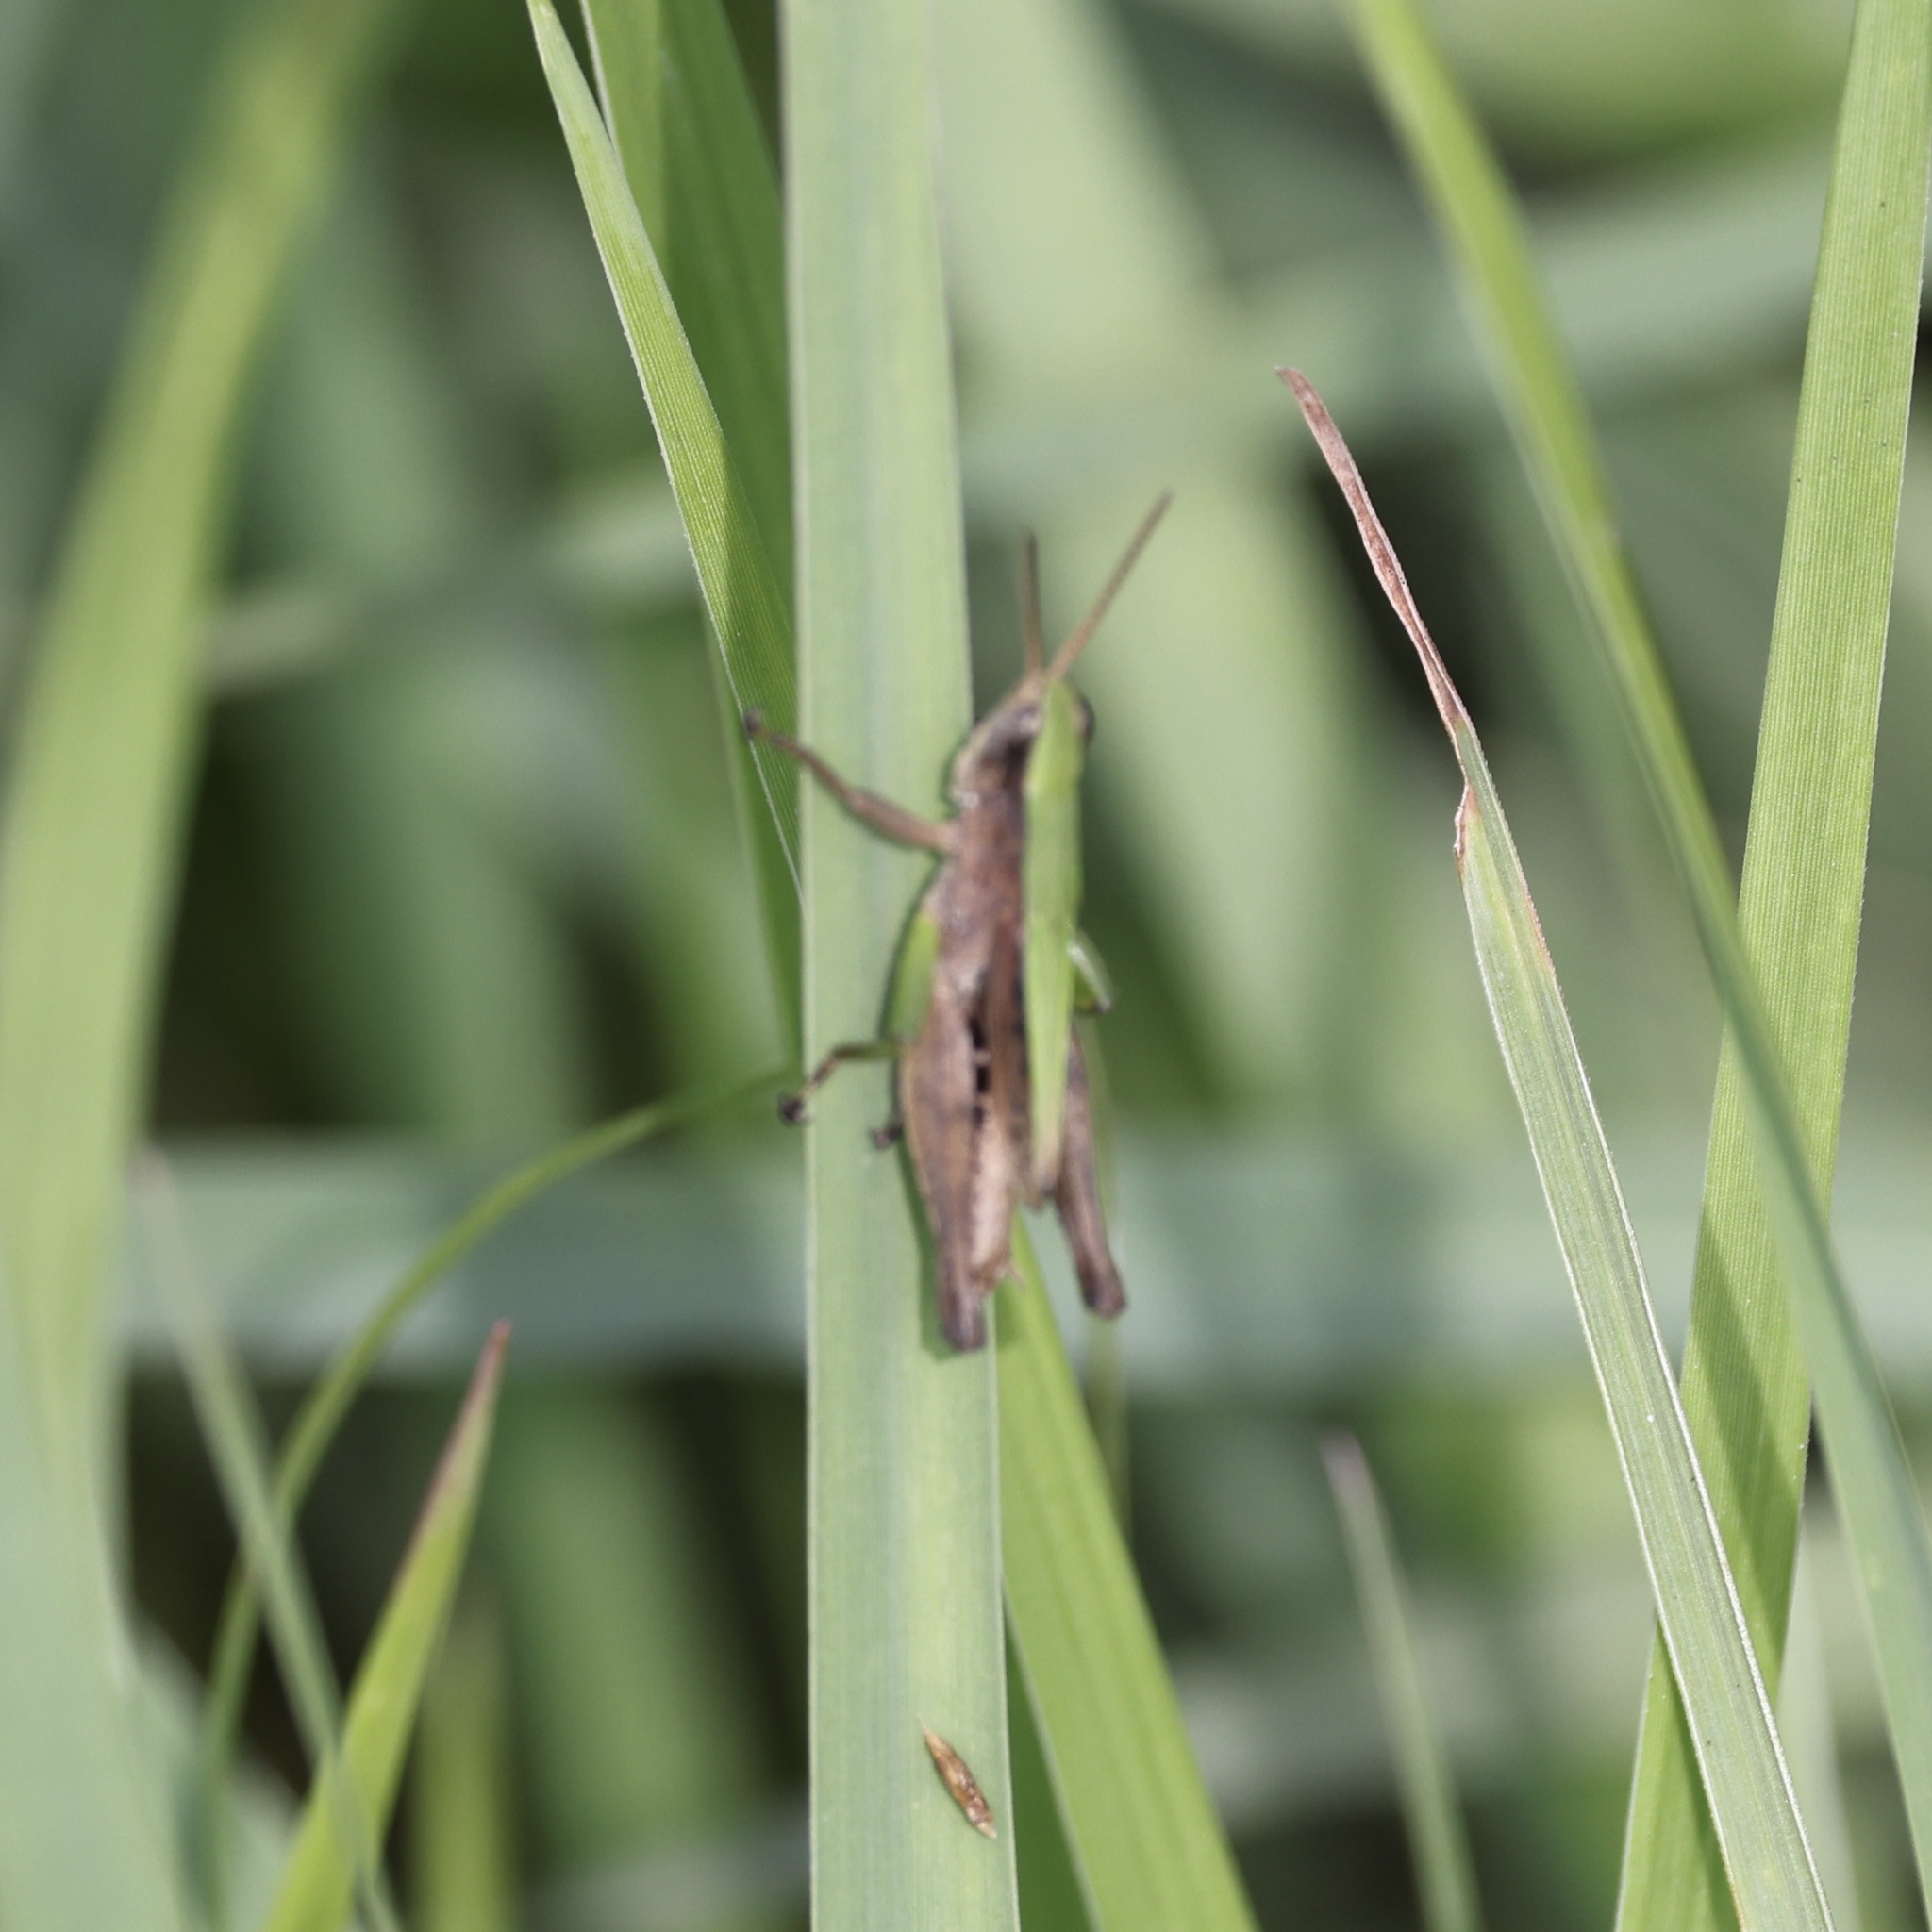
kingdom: Animalia
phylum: Arthropoda
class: Insecta
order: Orthoptera
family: Acrididae
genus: Dichromorpha
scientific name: Dichromorpha viridis
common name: Short-winged green grasshopper
